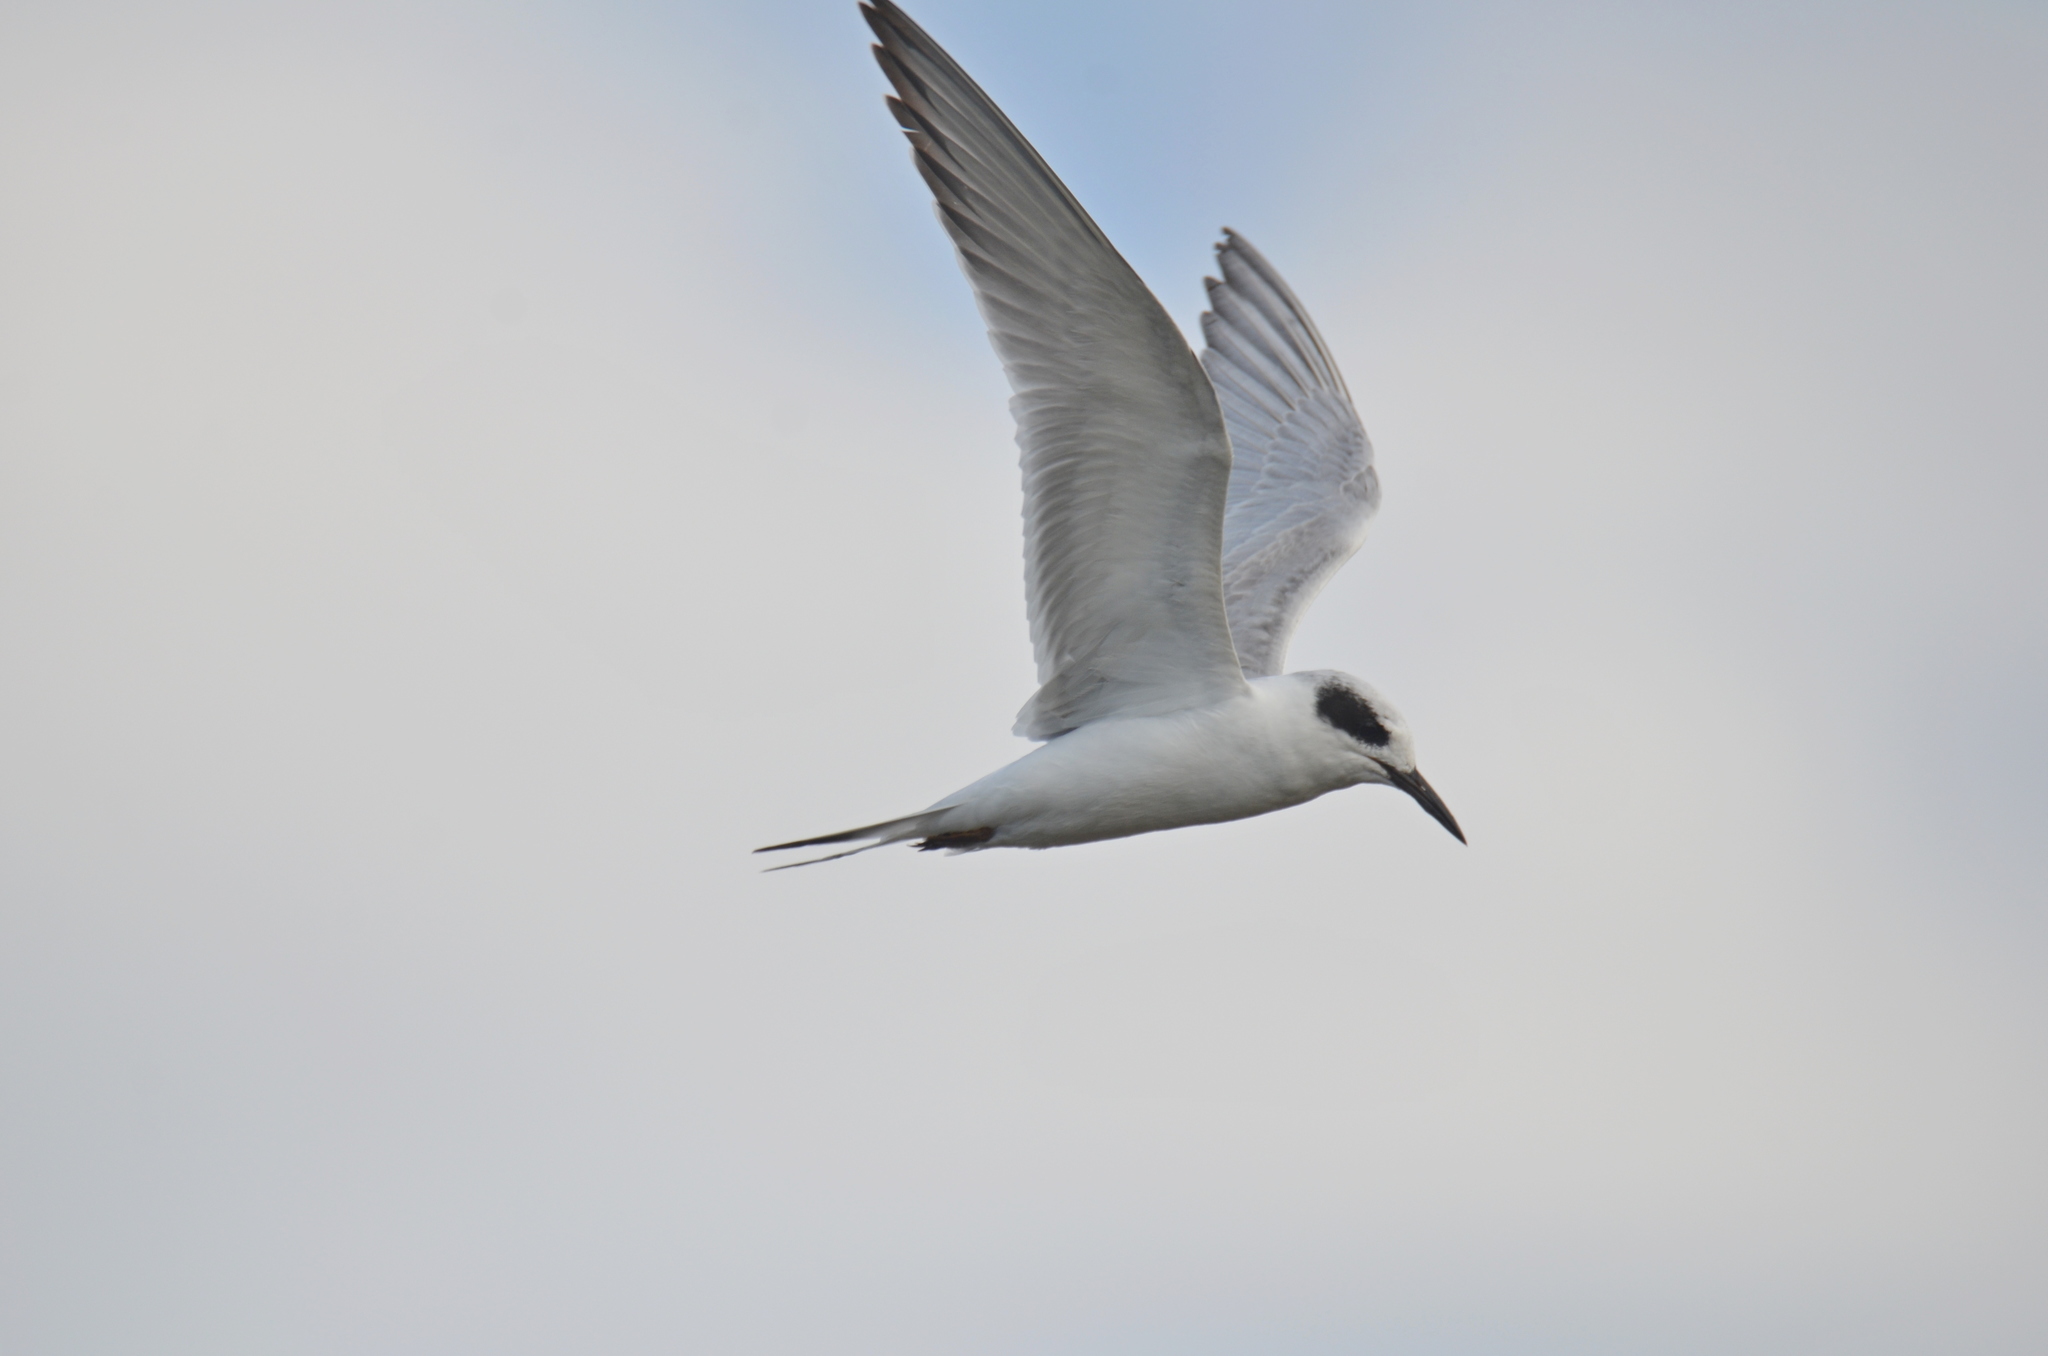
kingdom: Animalia
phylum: Chordata
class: Aves
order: Charadriiformes
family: Laridae
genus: Sterna
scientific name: Sterna forsteri
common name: Forster's tern
